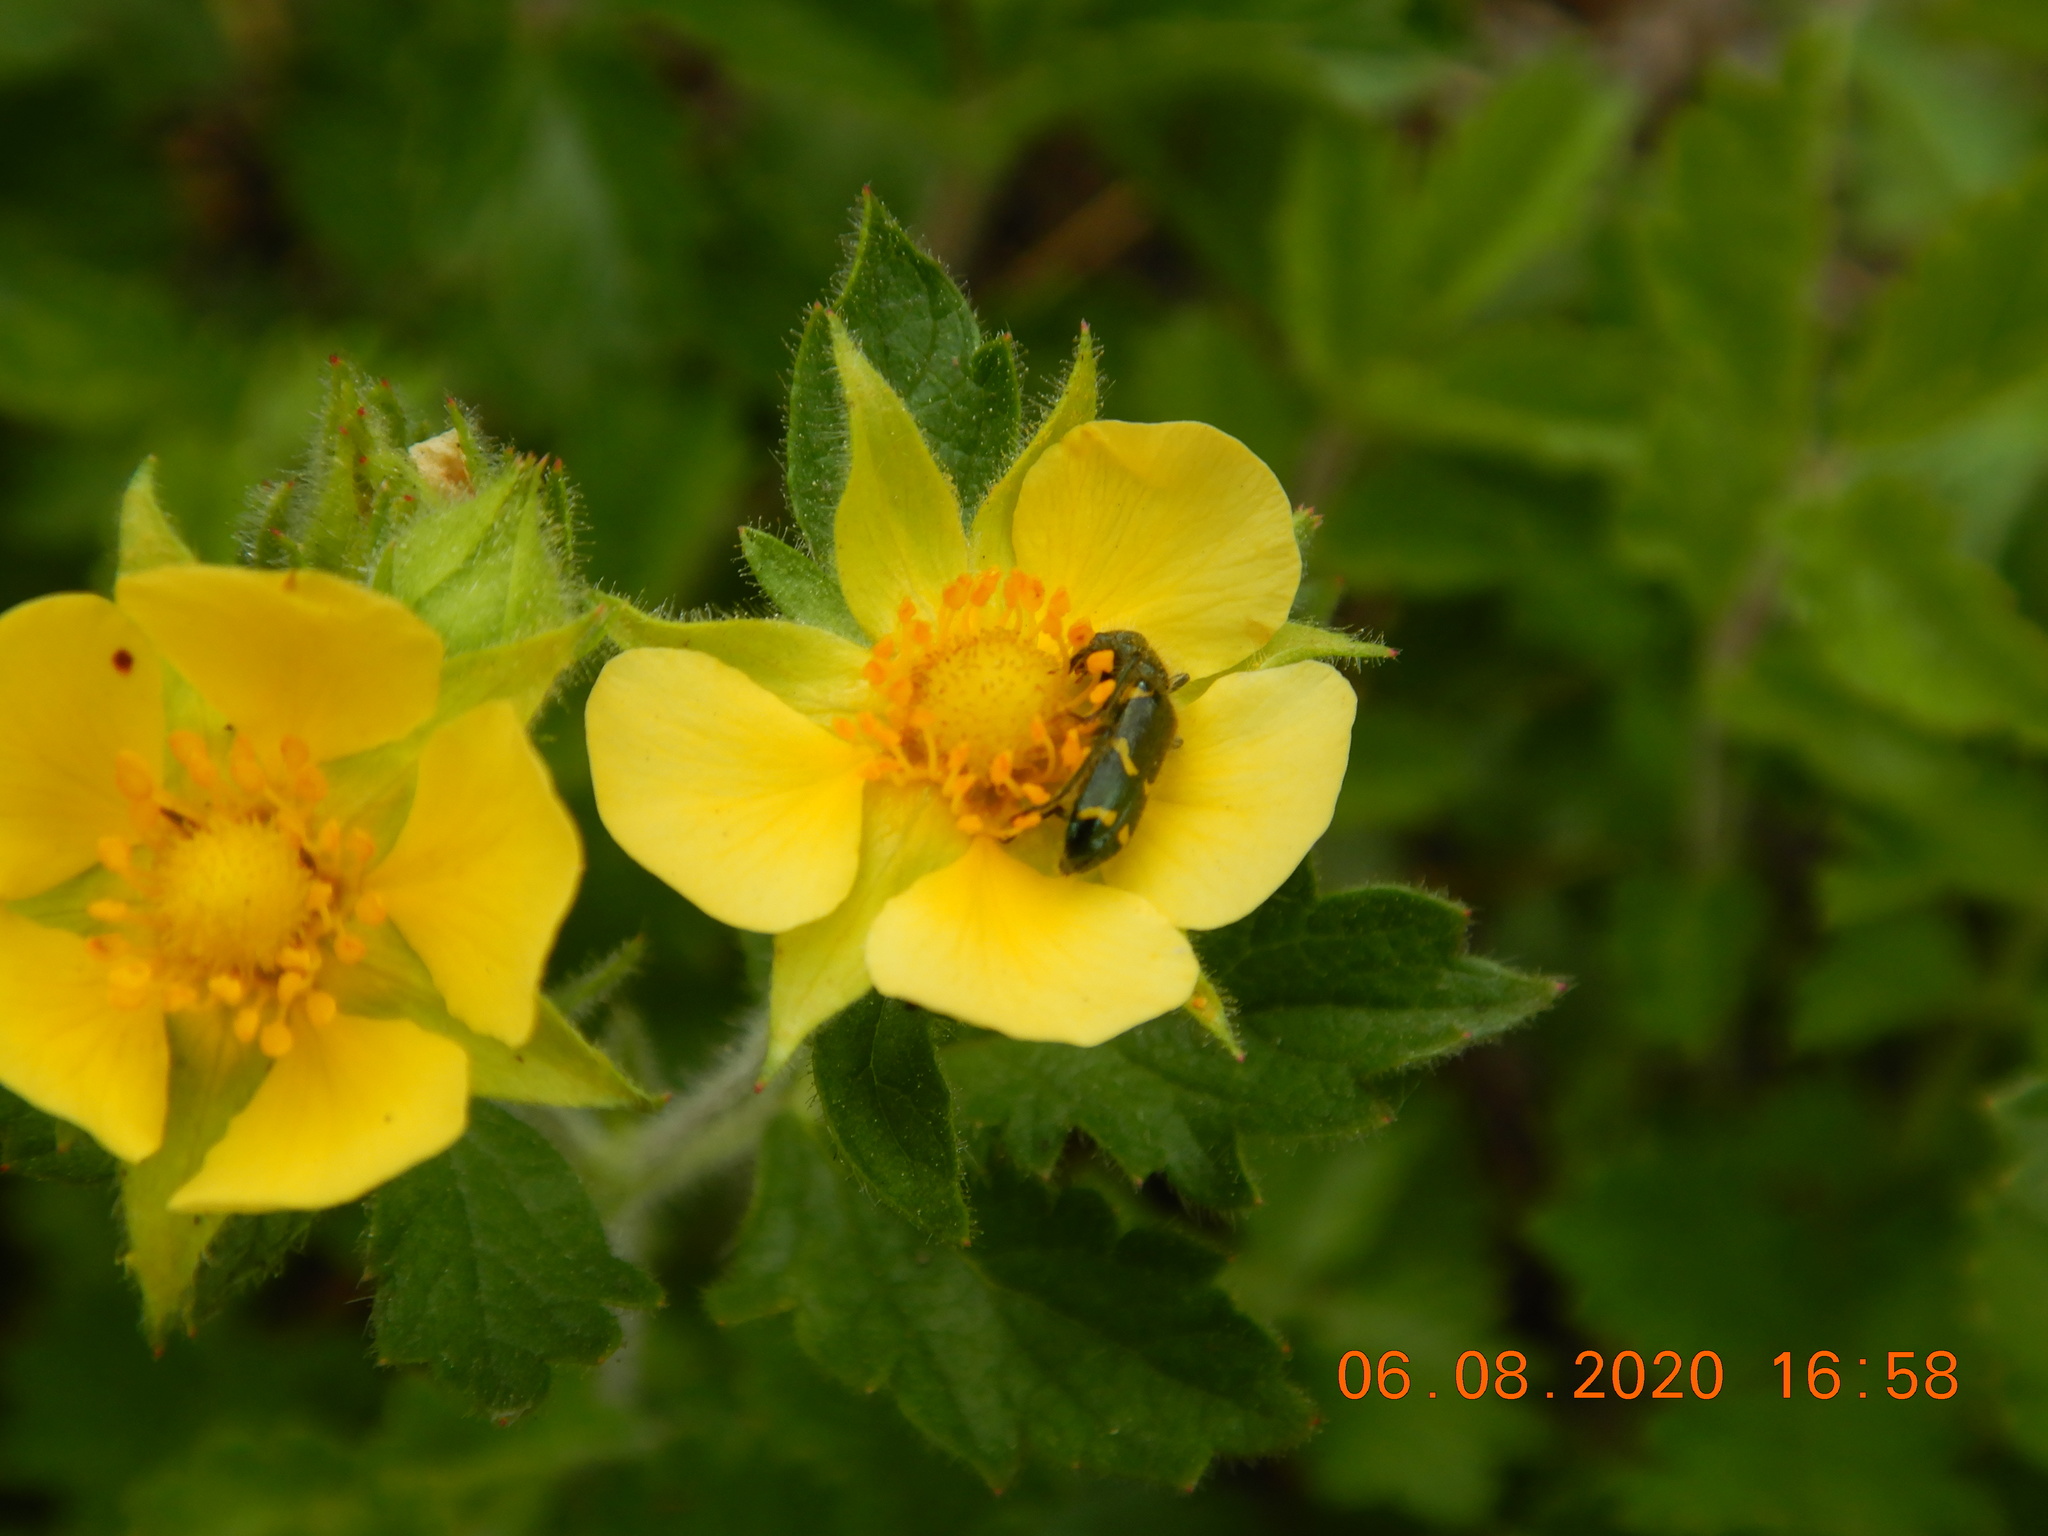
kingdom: Animalia
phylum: Arthropoda
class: Insecta
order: Coleoptera
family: Cleridae
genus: Trichodes
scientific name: Trichodes ornatus
